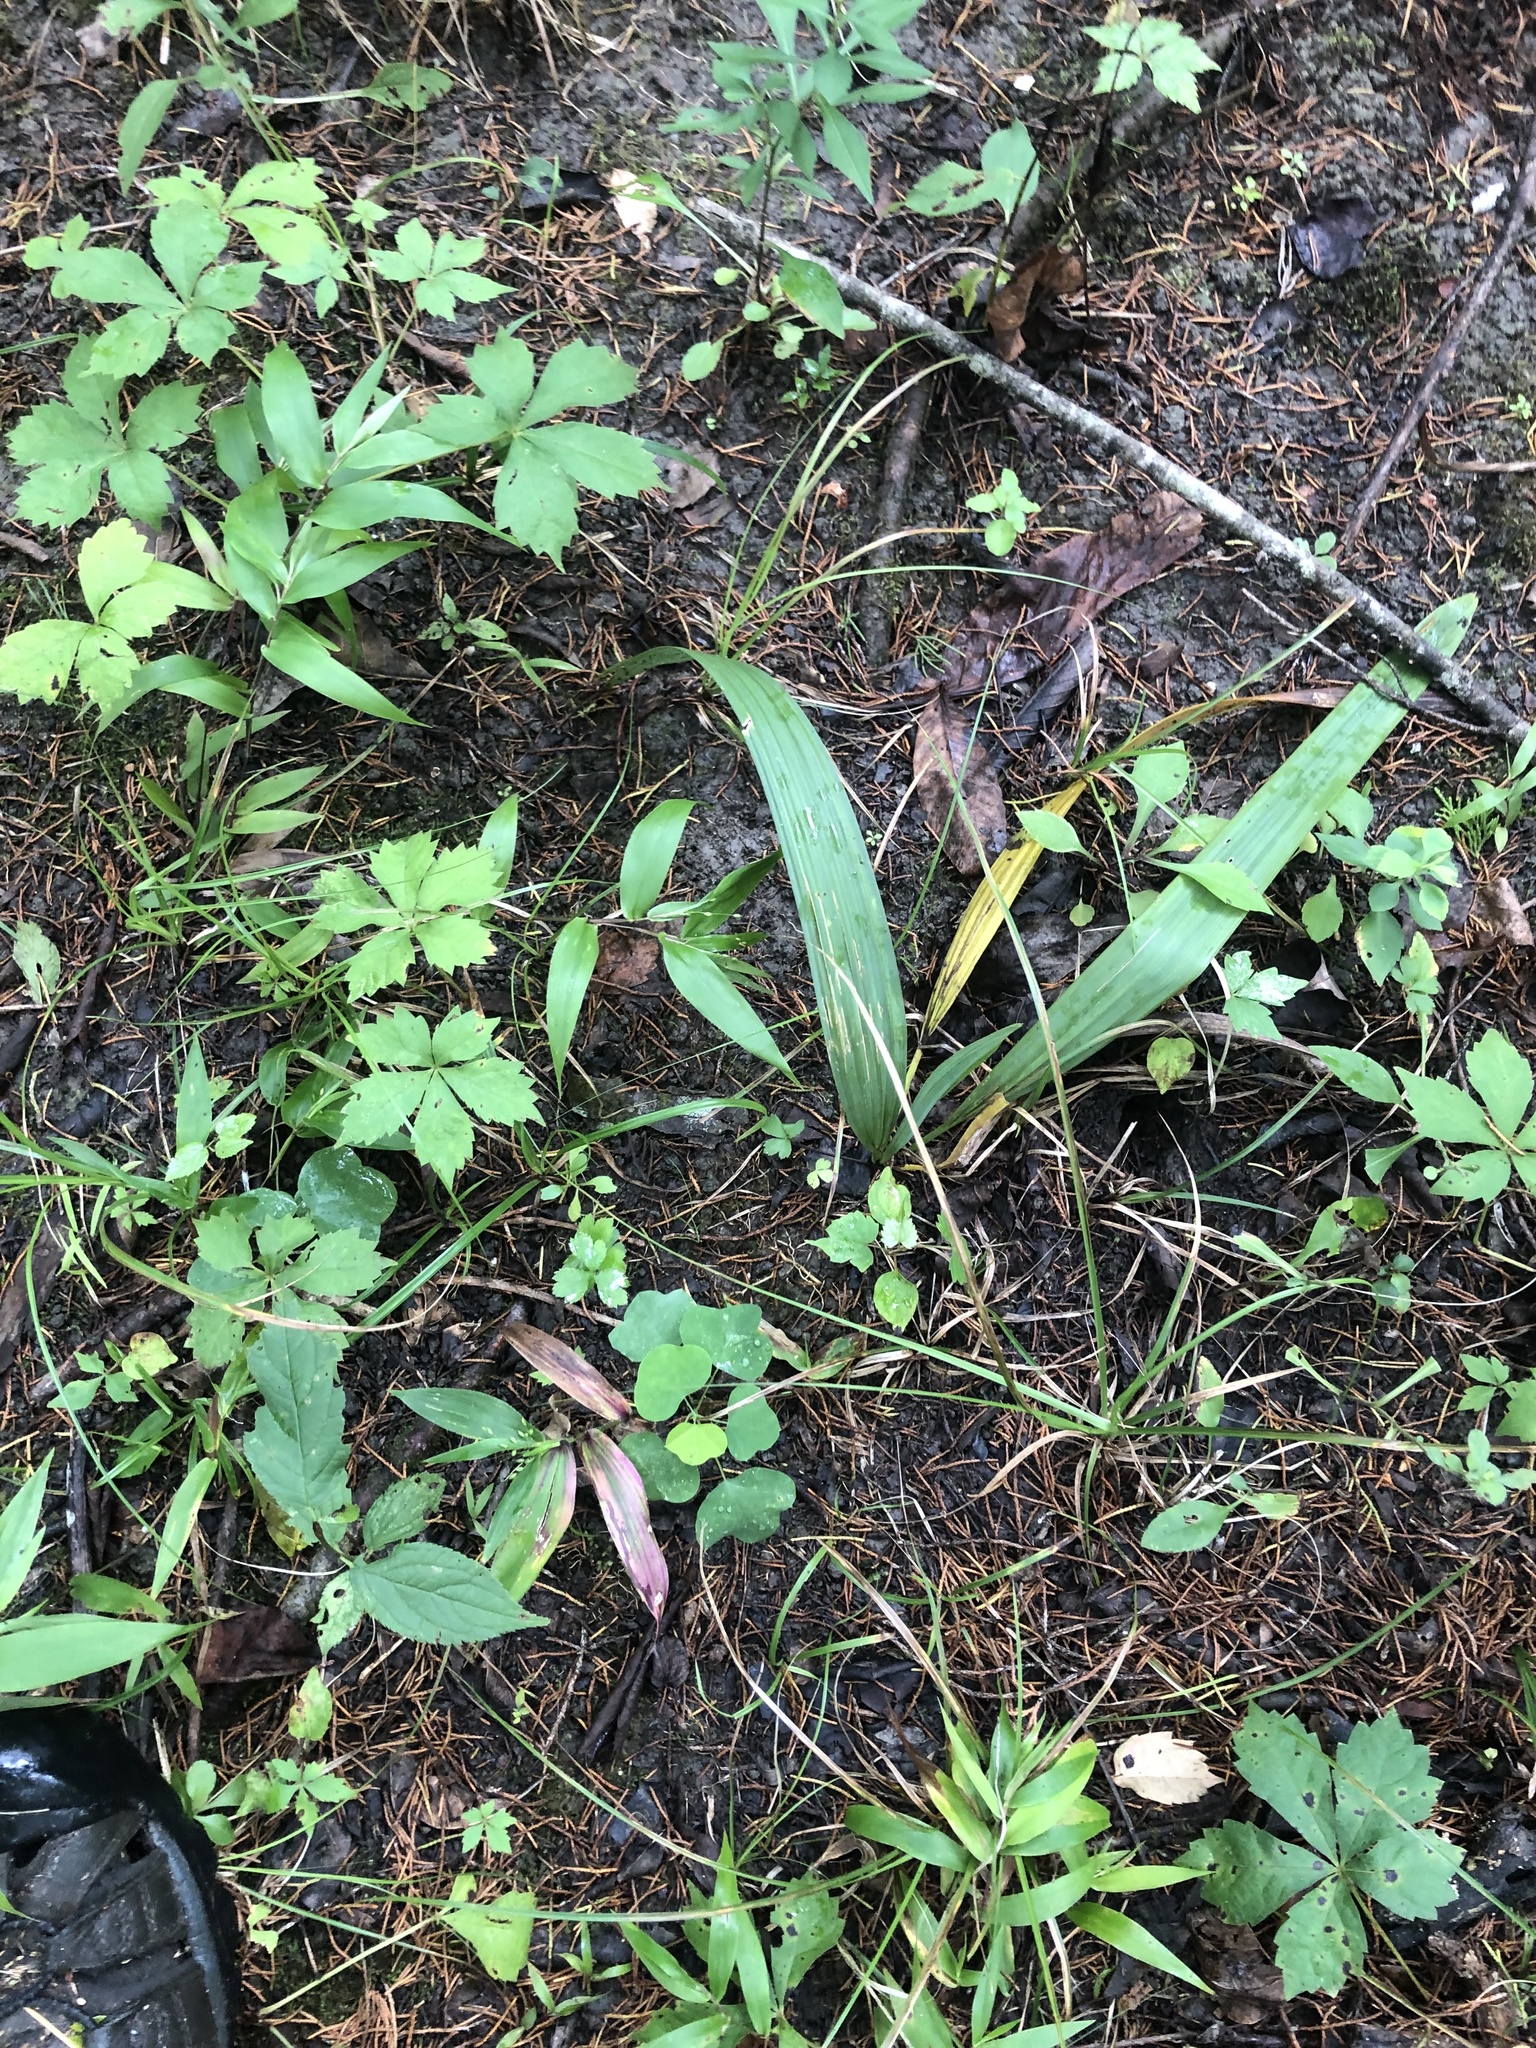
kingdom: Plantae
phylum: Tracheophyta
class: Liliopsida
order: Arecales
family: Arecaceae
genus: Sabal
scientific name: Sabal minor
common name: Dwarf palmetto
